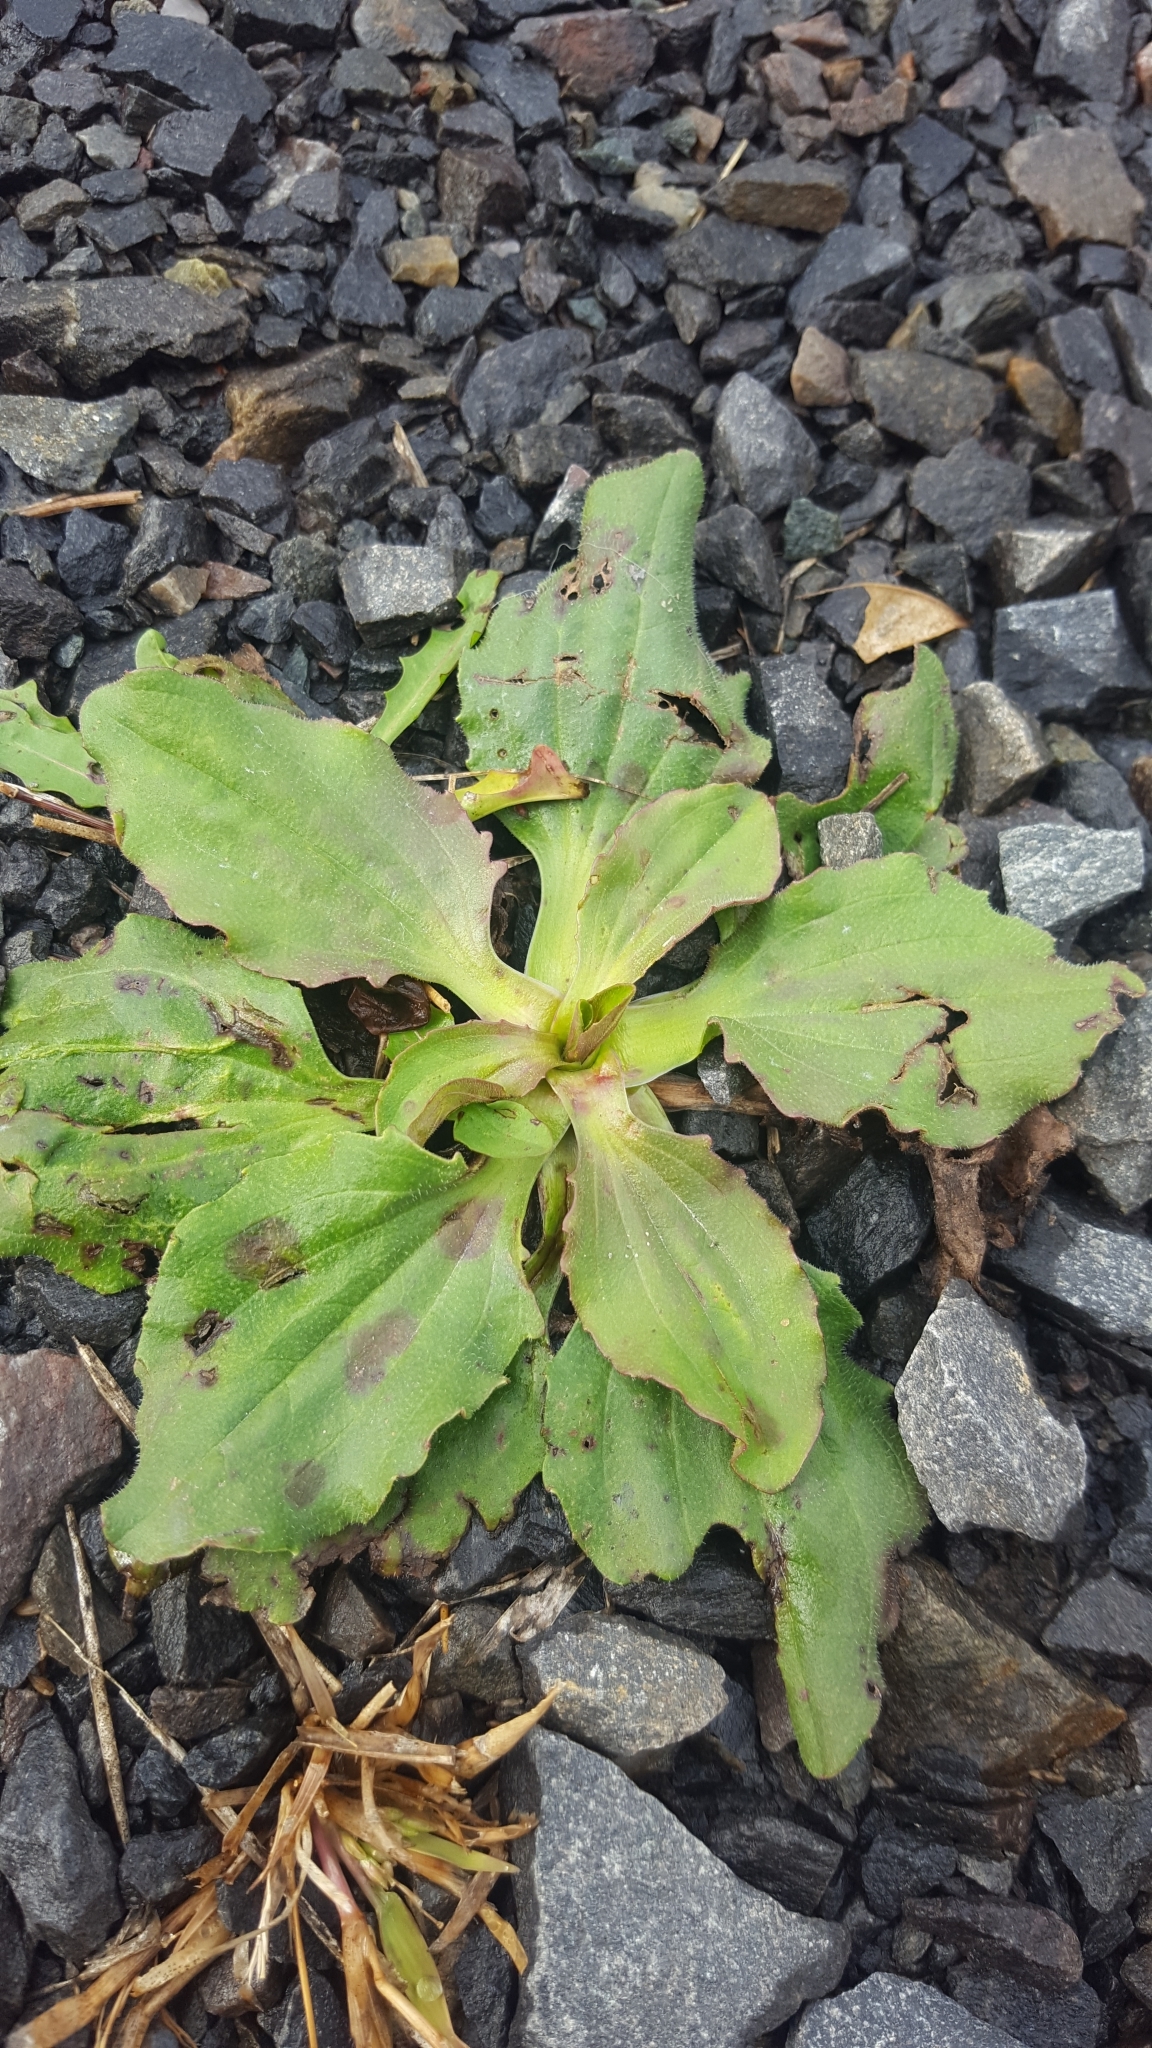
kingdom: Plantae
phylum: Tracheophyta
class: Magnoliopsida
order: Lamiales
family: Plantaginaceae
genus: Plantago
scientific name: Plantago major
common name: Common plantain
